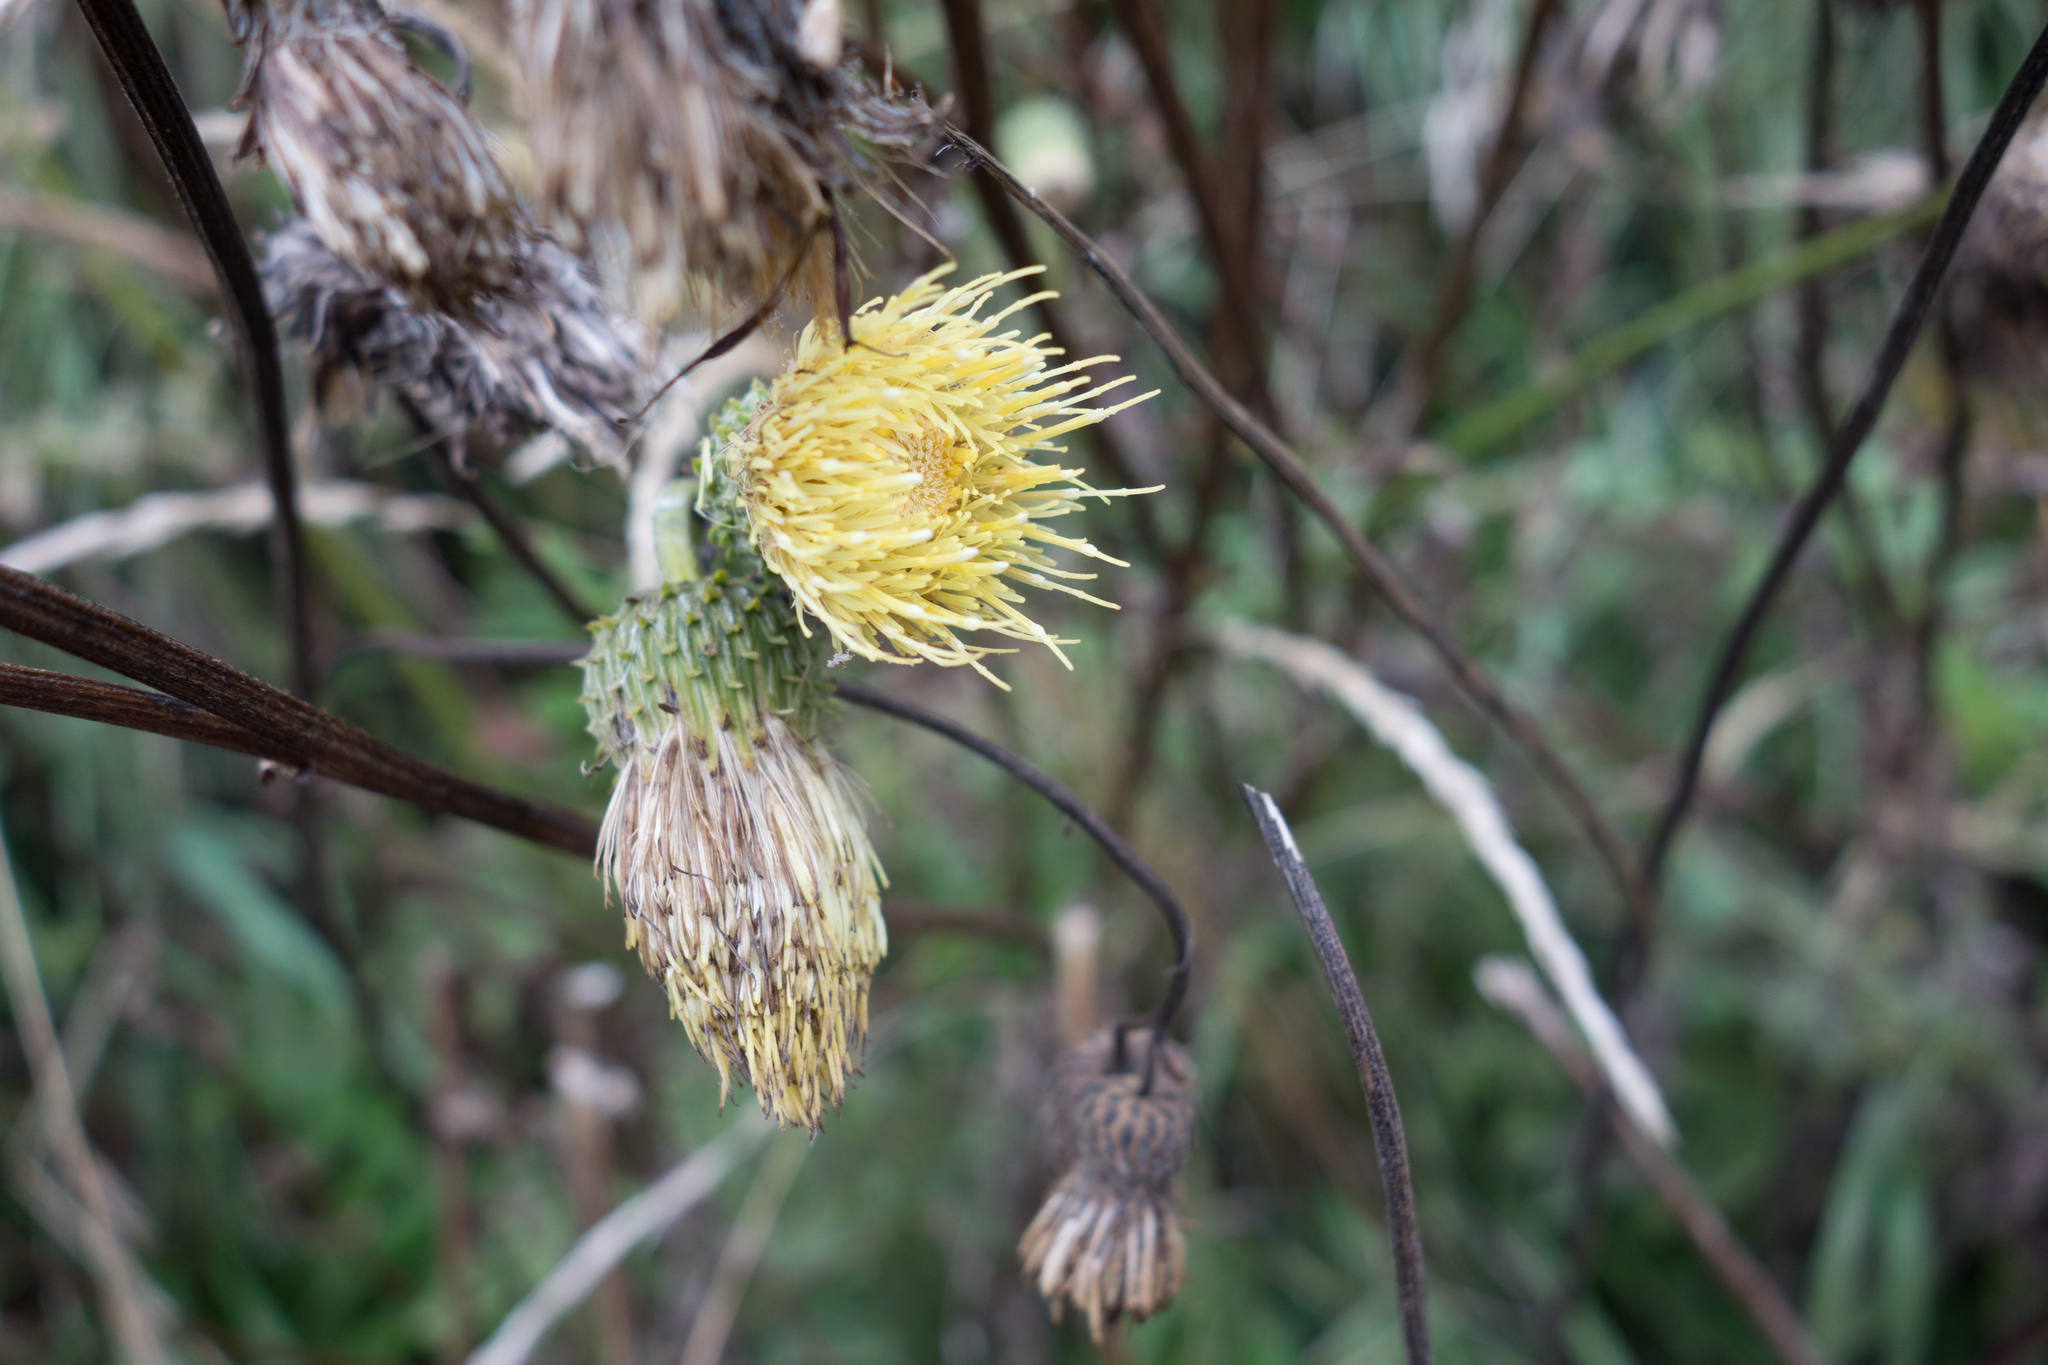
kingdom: Plantae
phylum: Tracheophyta
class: Magnoliopsida
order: Asterales
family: Asteraceae
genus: Cirsium
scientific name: Cirsium erisithales
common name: Yellow thistle
